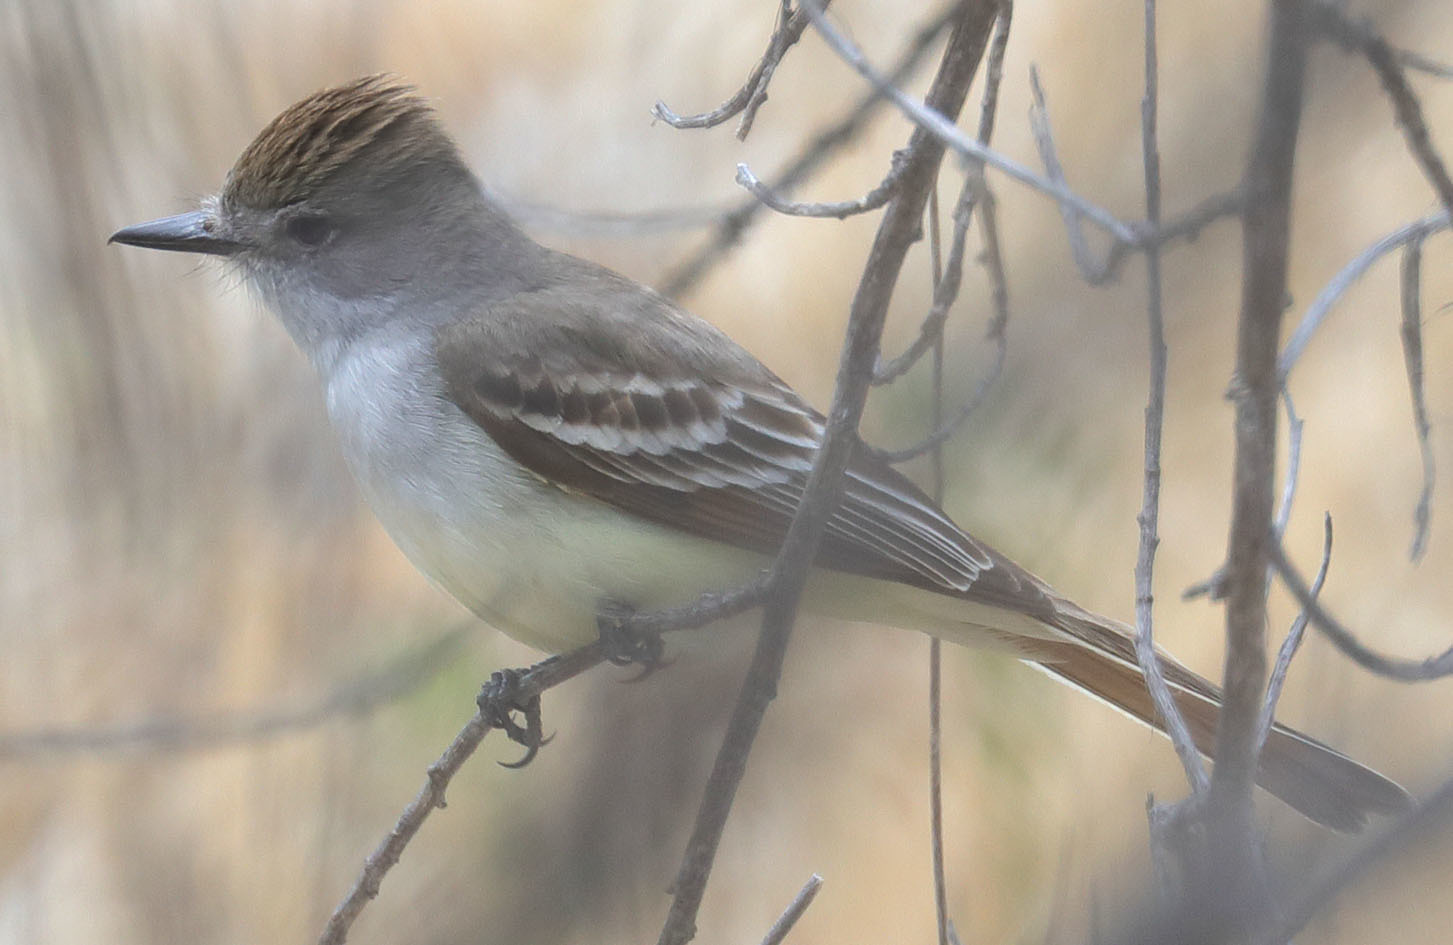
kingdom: Animalia
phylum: Chordata
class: Aves
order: Passeriformes
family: Tyrannidae
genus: Myiarchus
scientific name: Myiarchus cinerascens
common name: Ash-throated flycatcher
